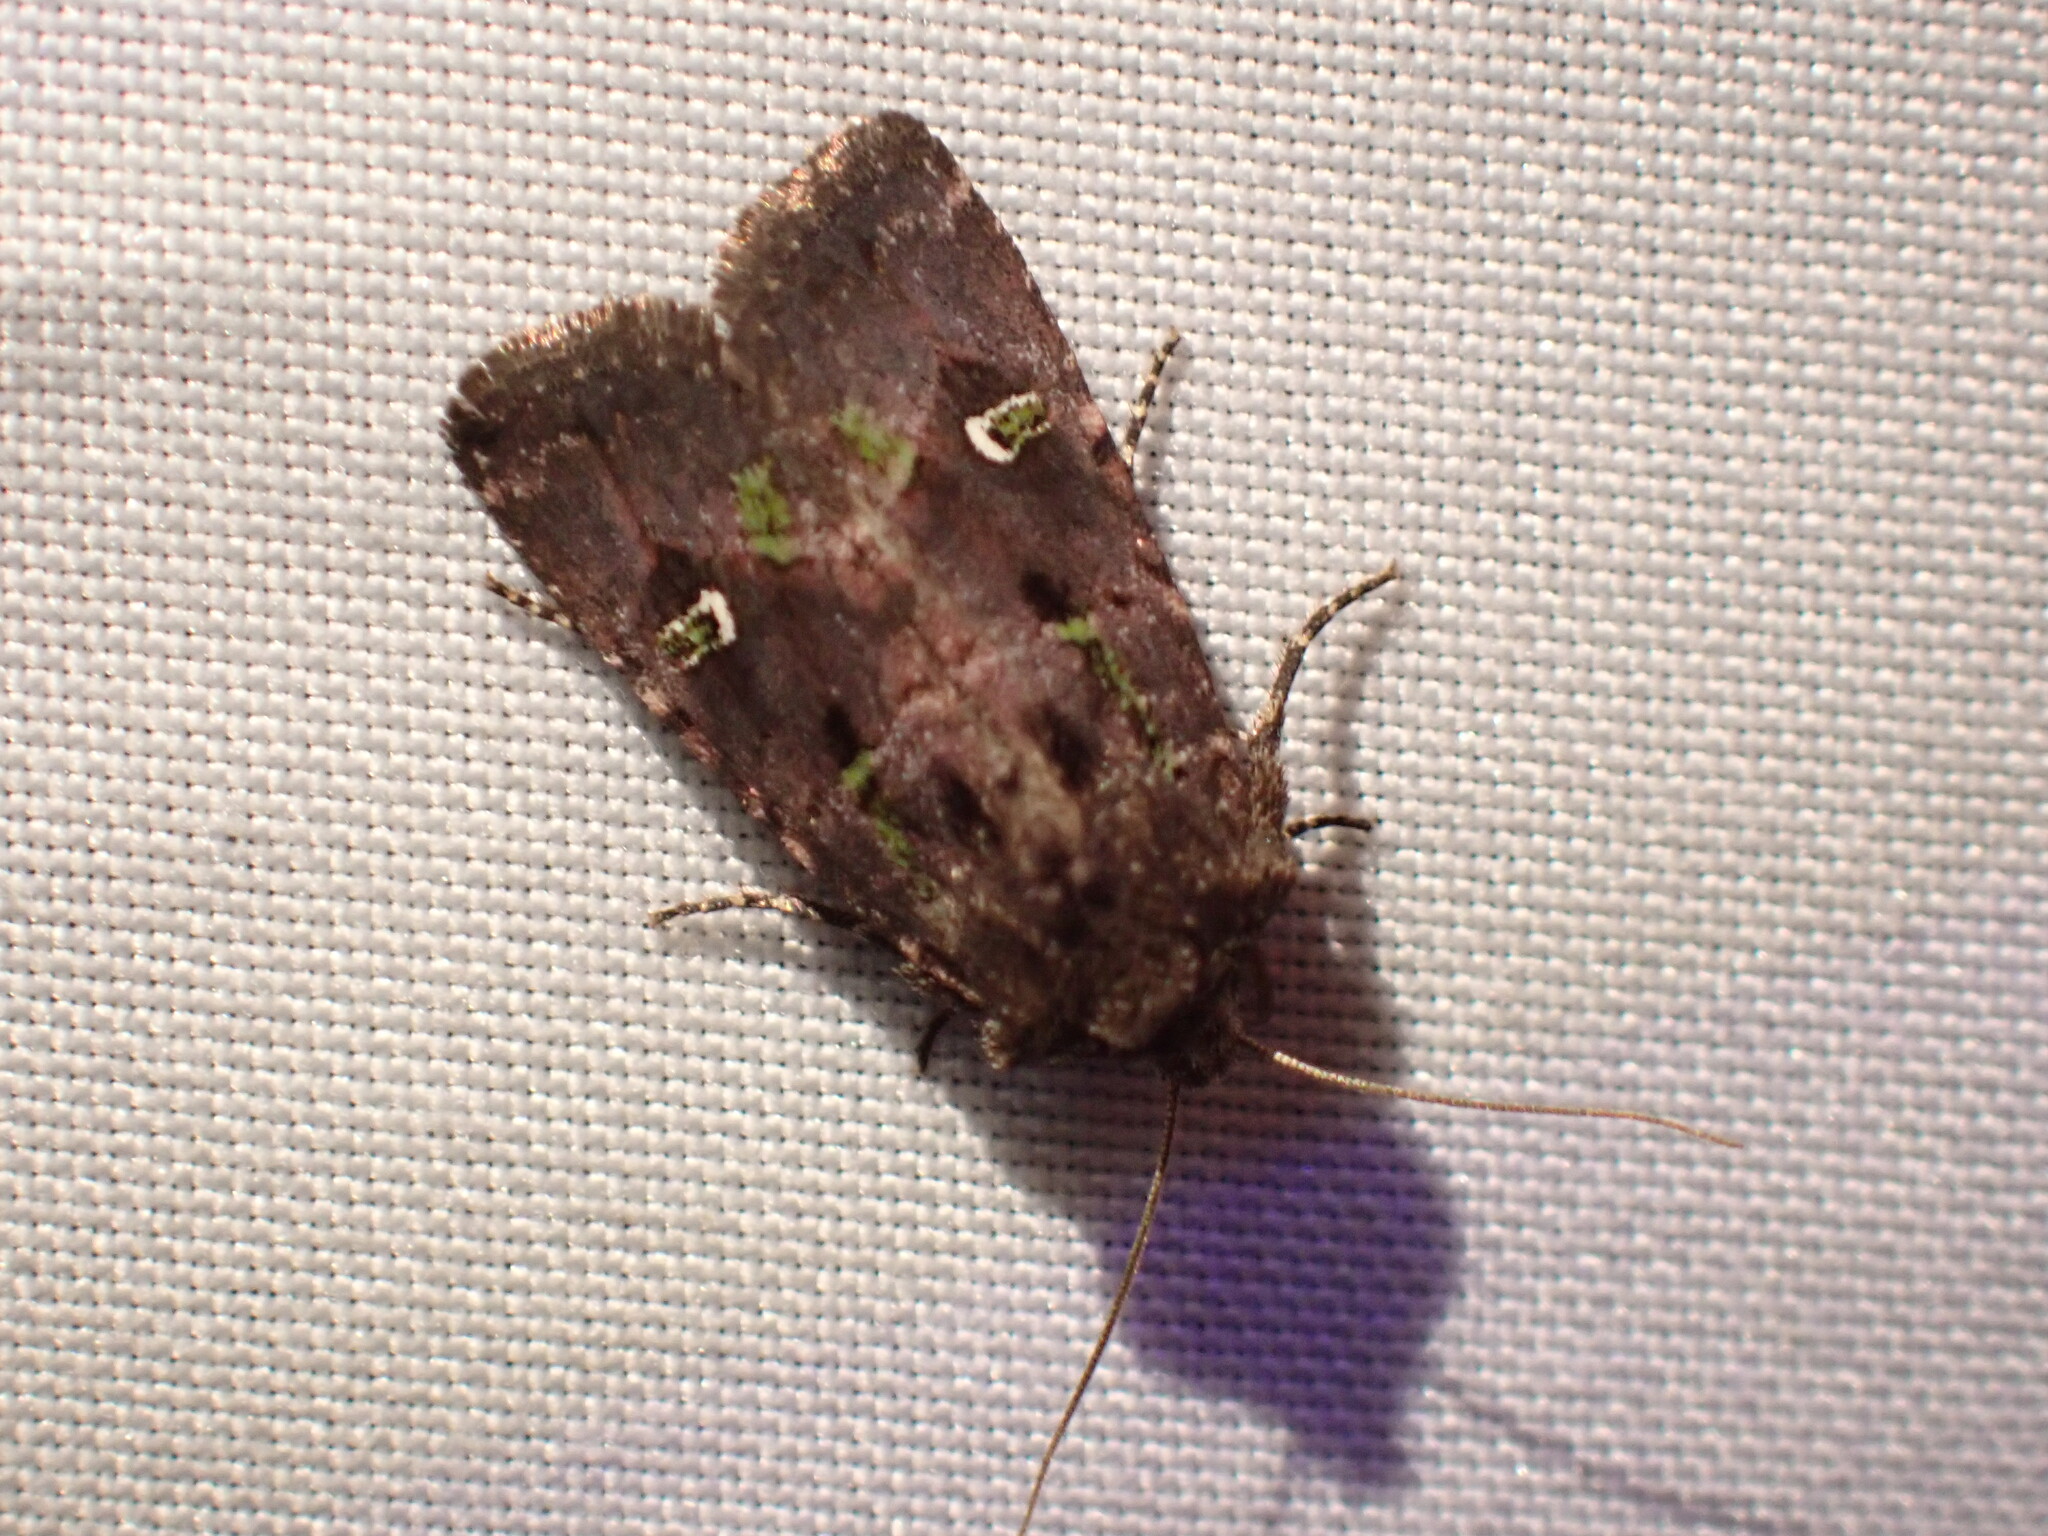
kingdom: Animalia
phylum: Arthropoda
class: Insecta
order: Lepidoptera
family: Noctuidae
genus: Lacinipolia
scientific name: Lacinipolia renigera
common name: Kidney-spotted minor
